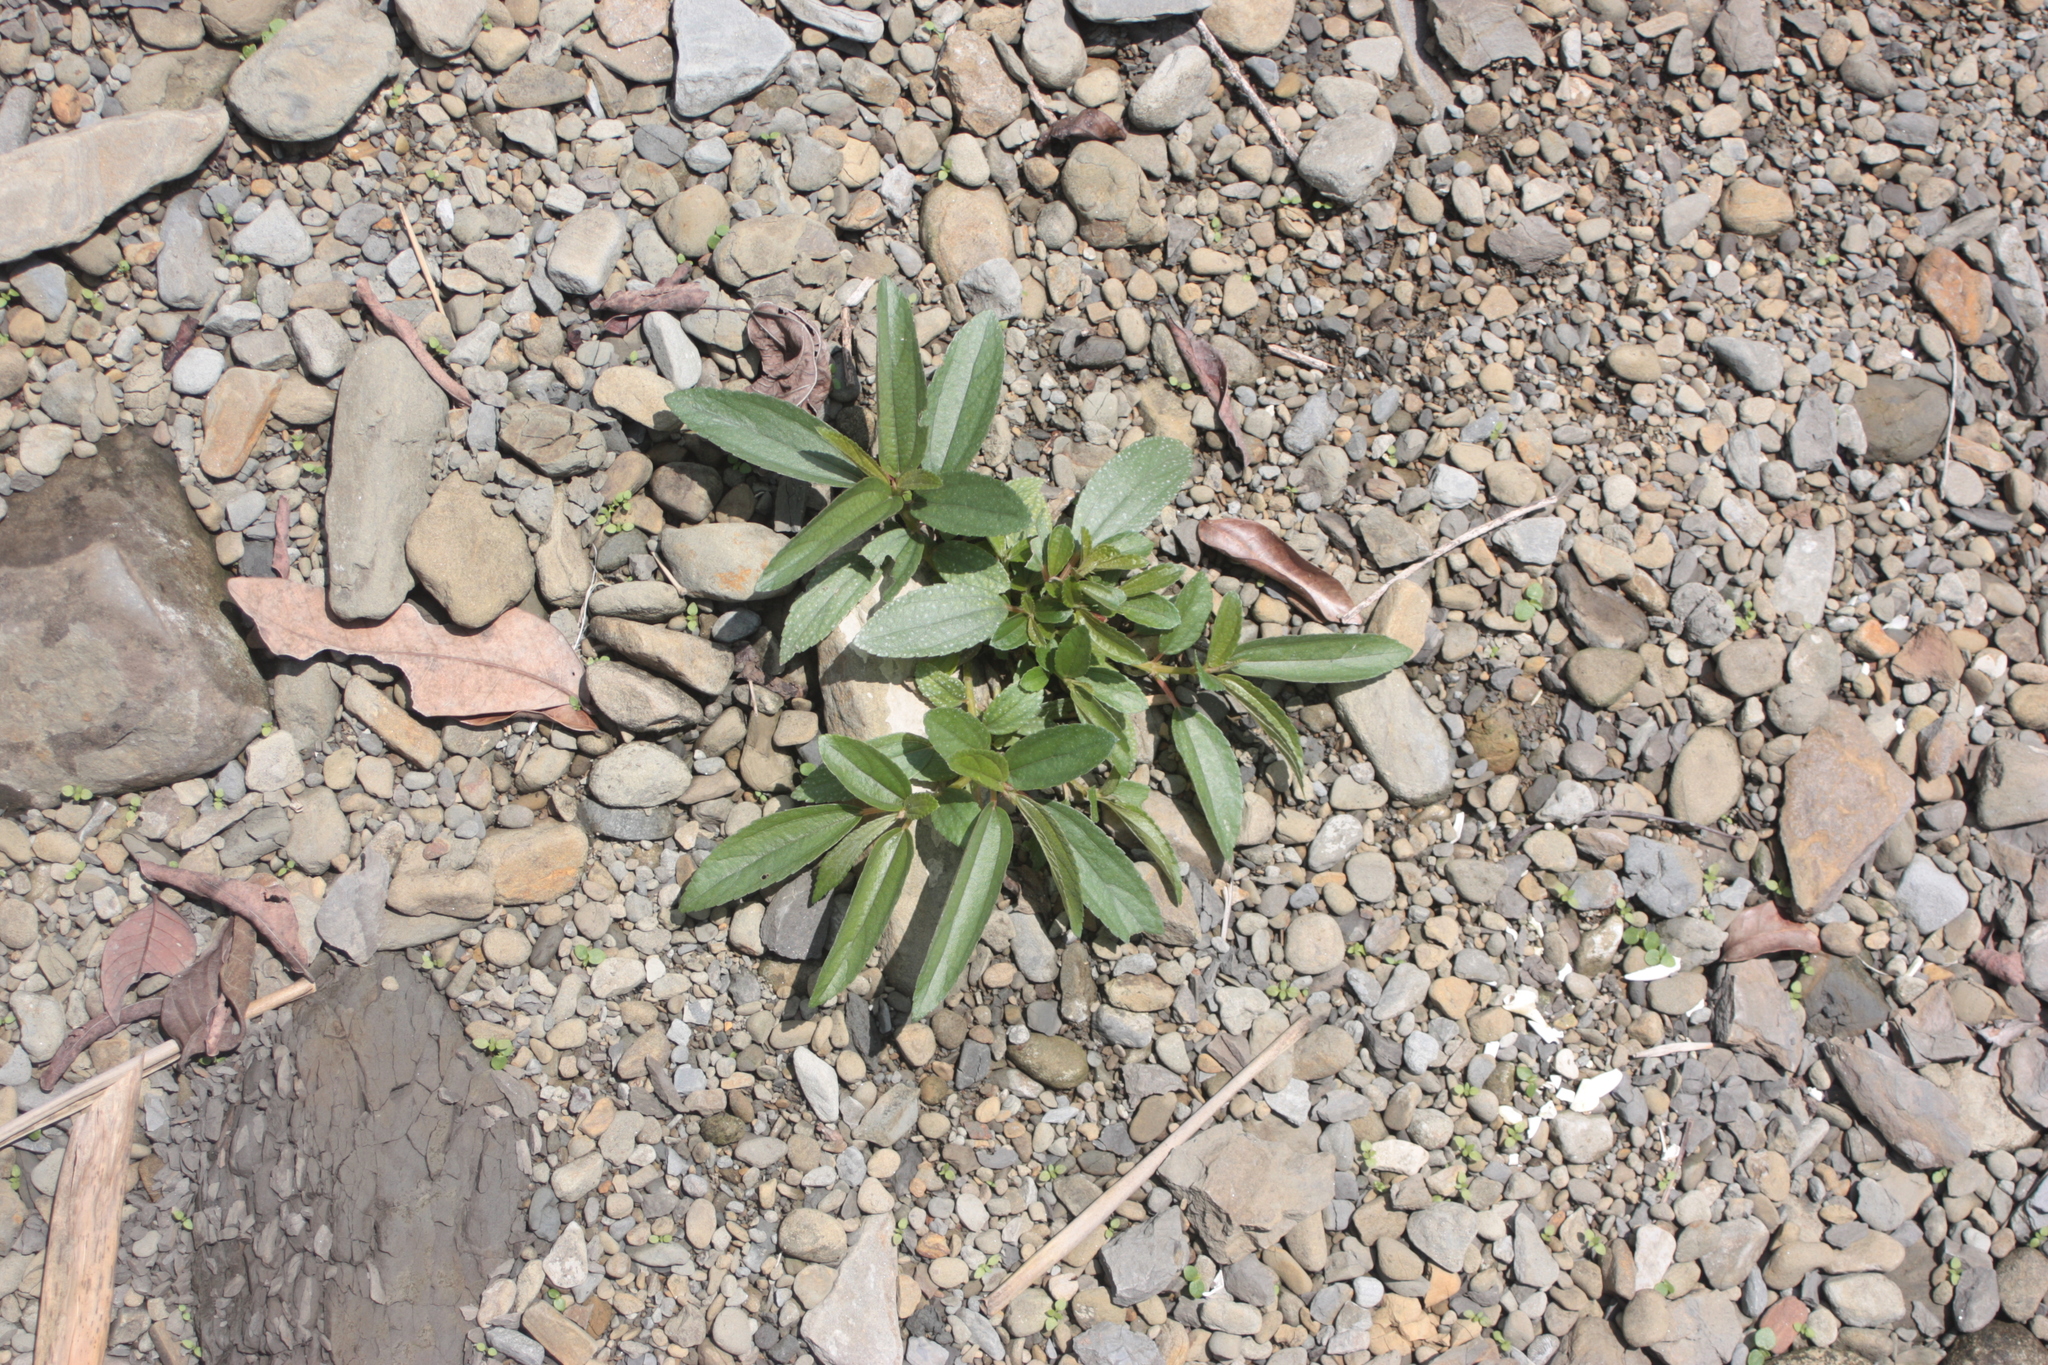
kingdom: Plantae
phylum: Tracheophyta
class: Magnoliopsida
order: Rosales
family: Urticaceae
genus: Boehmeria
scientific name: Boehmeria densiflora
